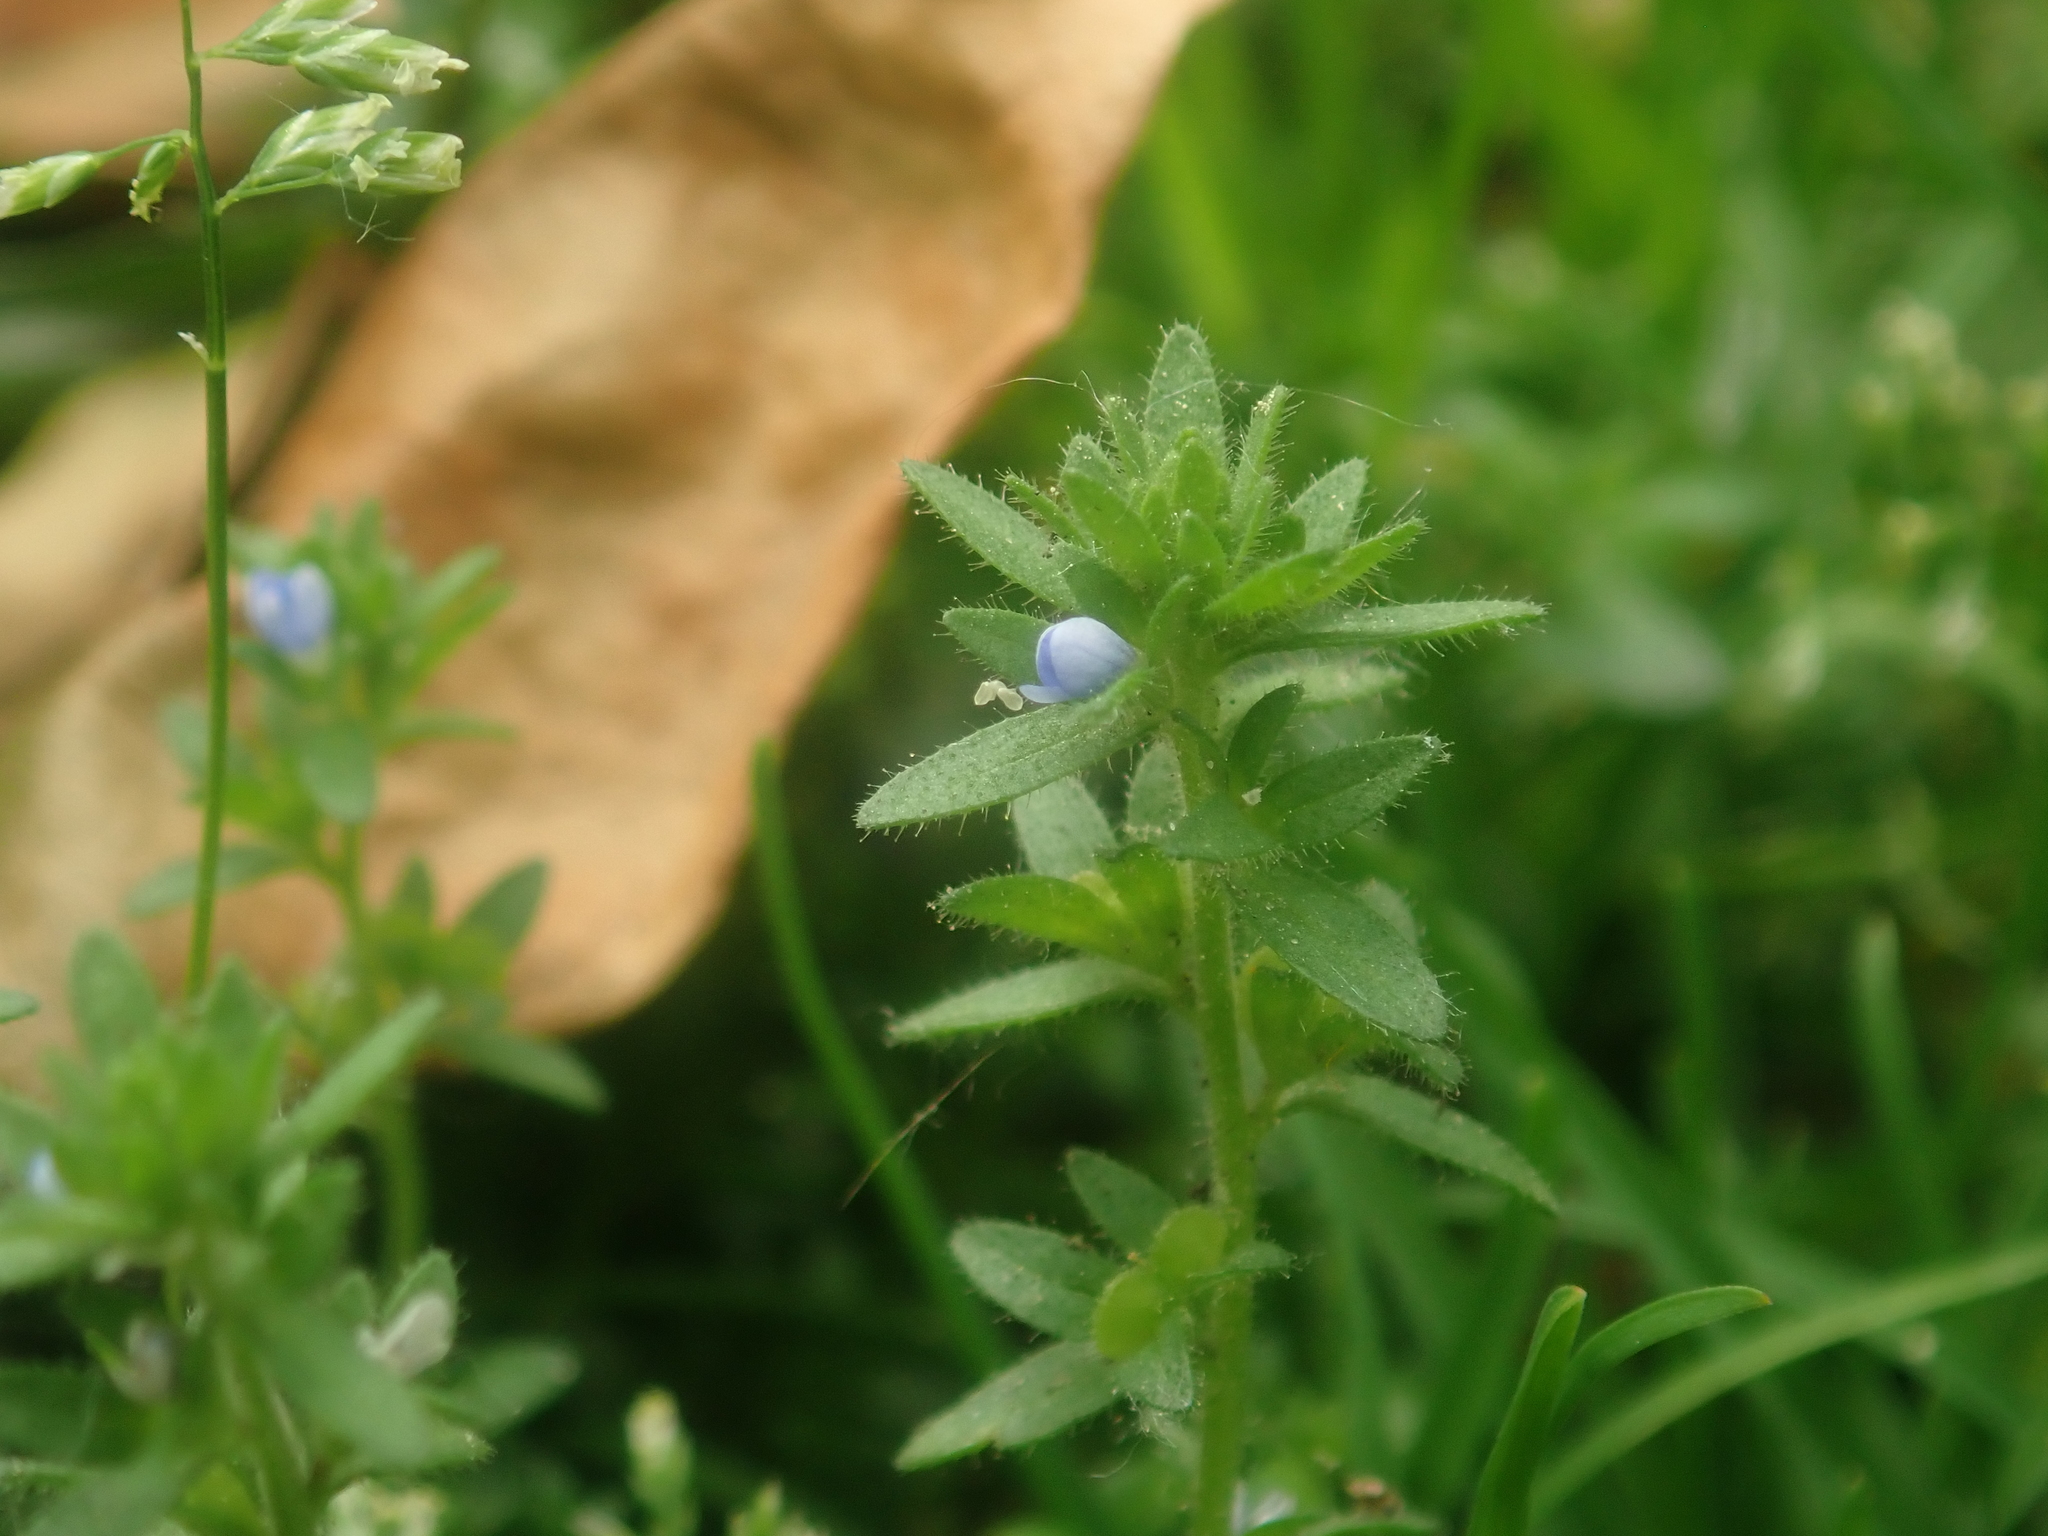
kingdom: Plantae
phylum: Tracheophyta
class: Magnoliopsida
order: Lamiales
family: Plantaginaceae
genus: Veronica
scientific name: Veronica arvensis
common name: Corn speedwell
